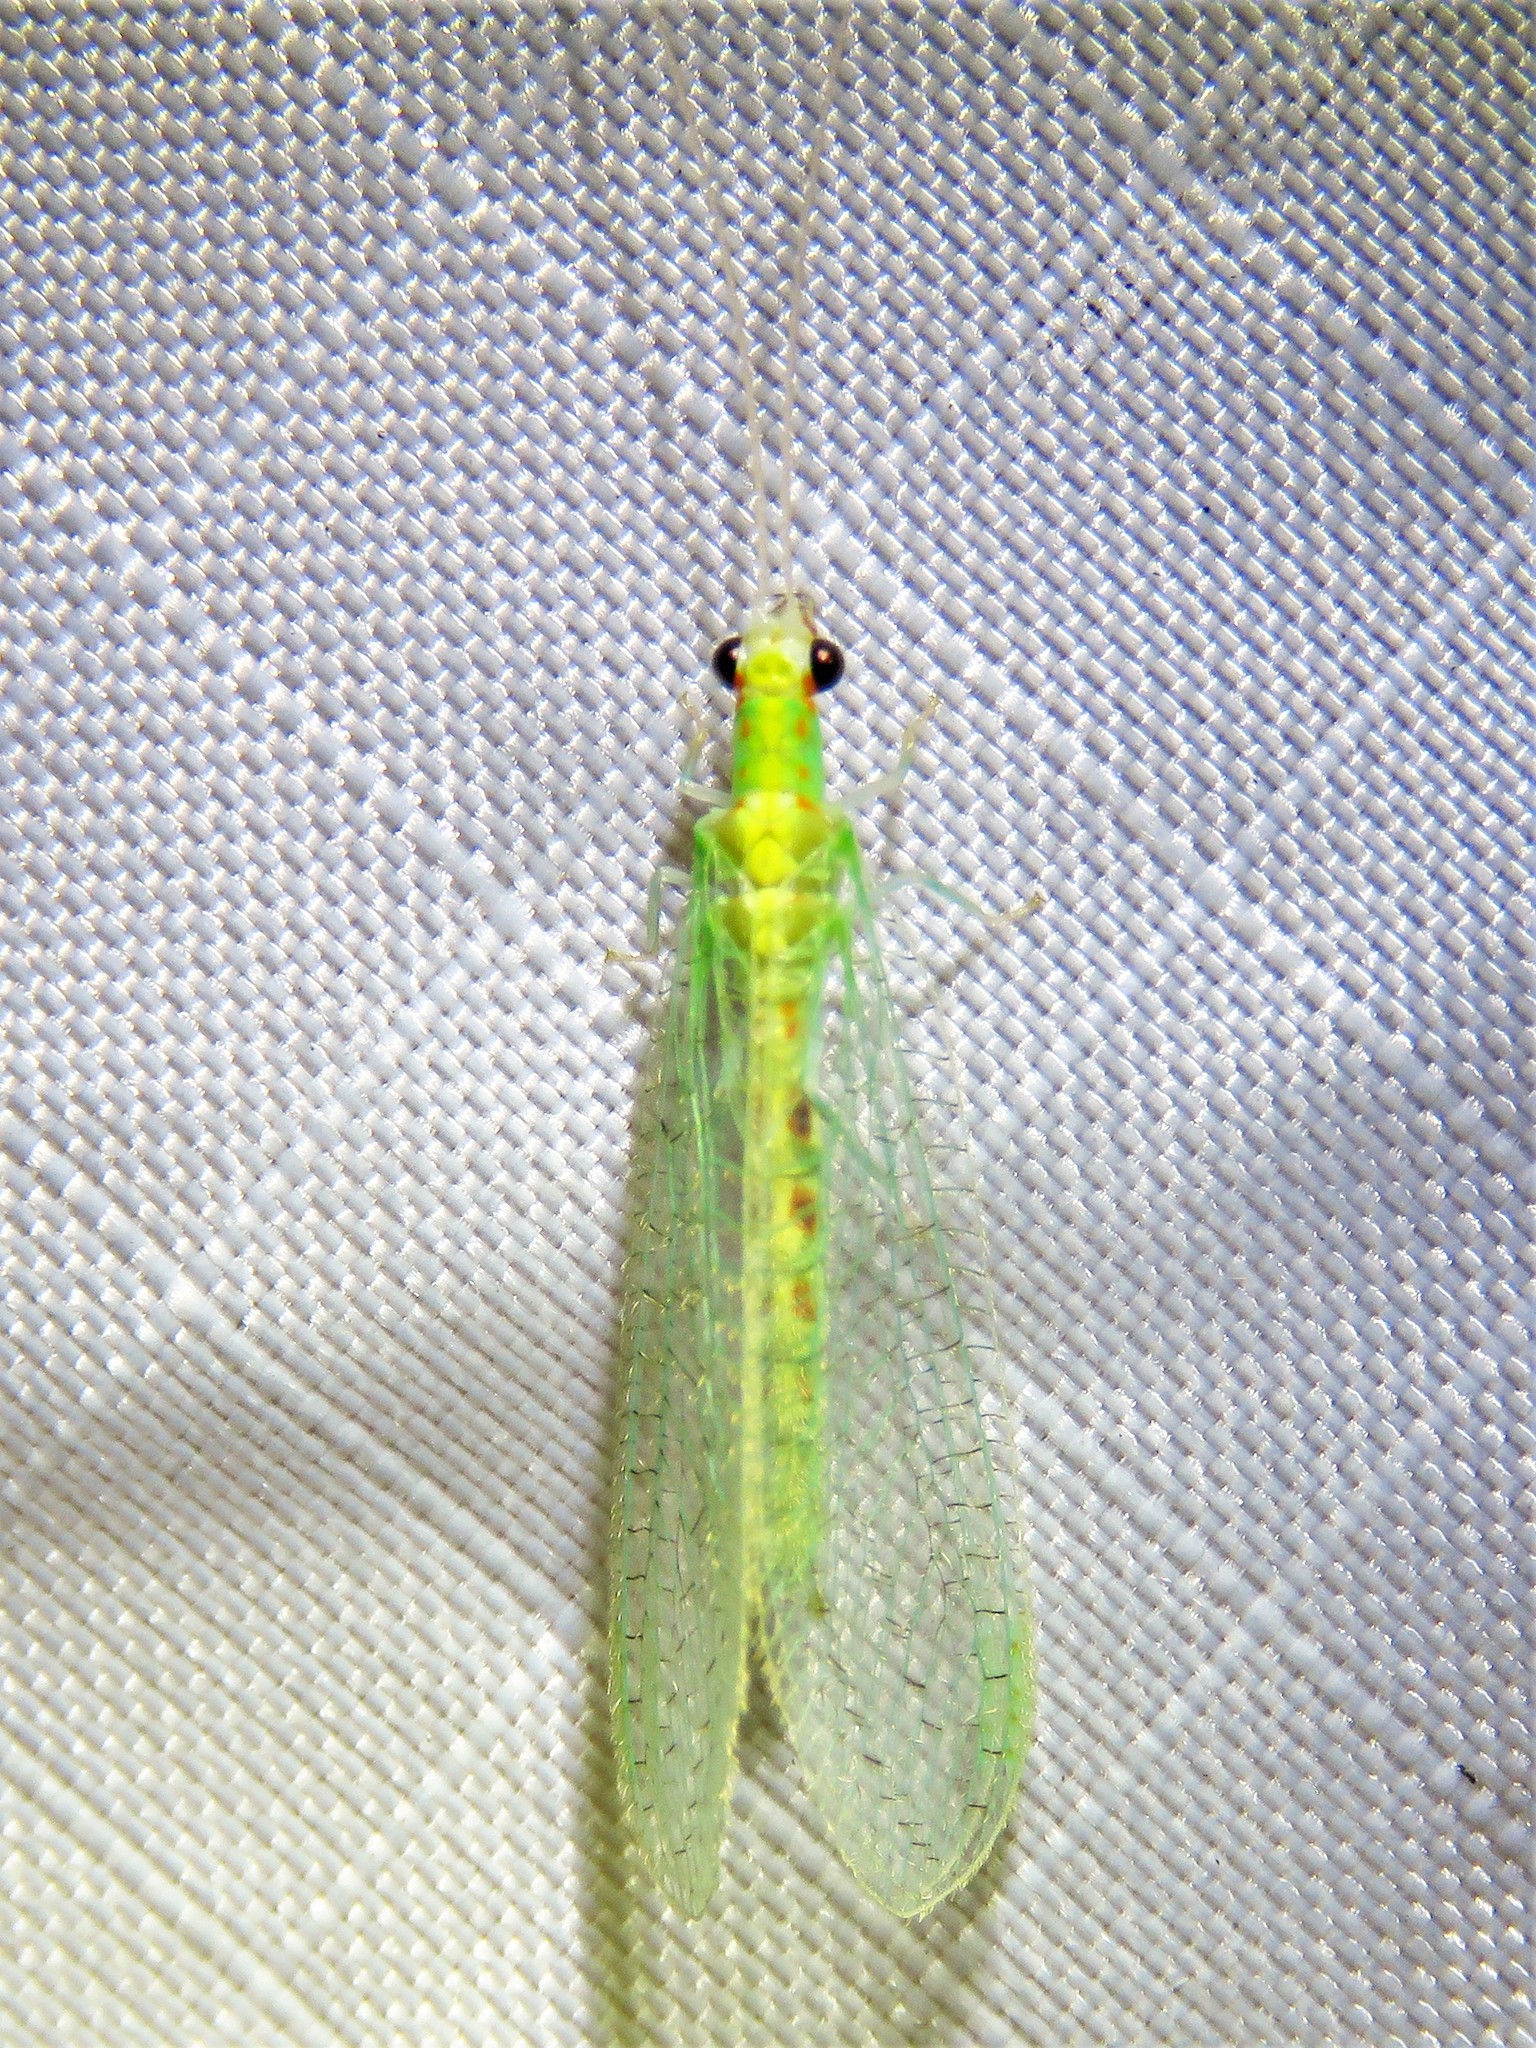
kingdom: Animalia
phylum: Arthropoda
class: Insecta
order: Neuroptera
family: Chrysopidae
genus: Chrysopa
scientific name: Chrysopa quadripunctata
